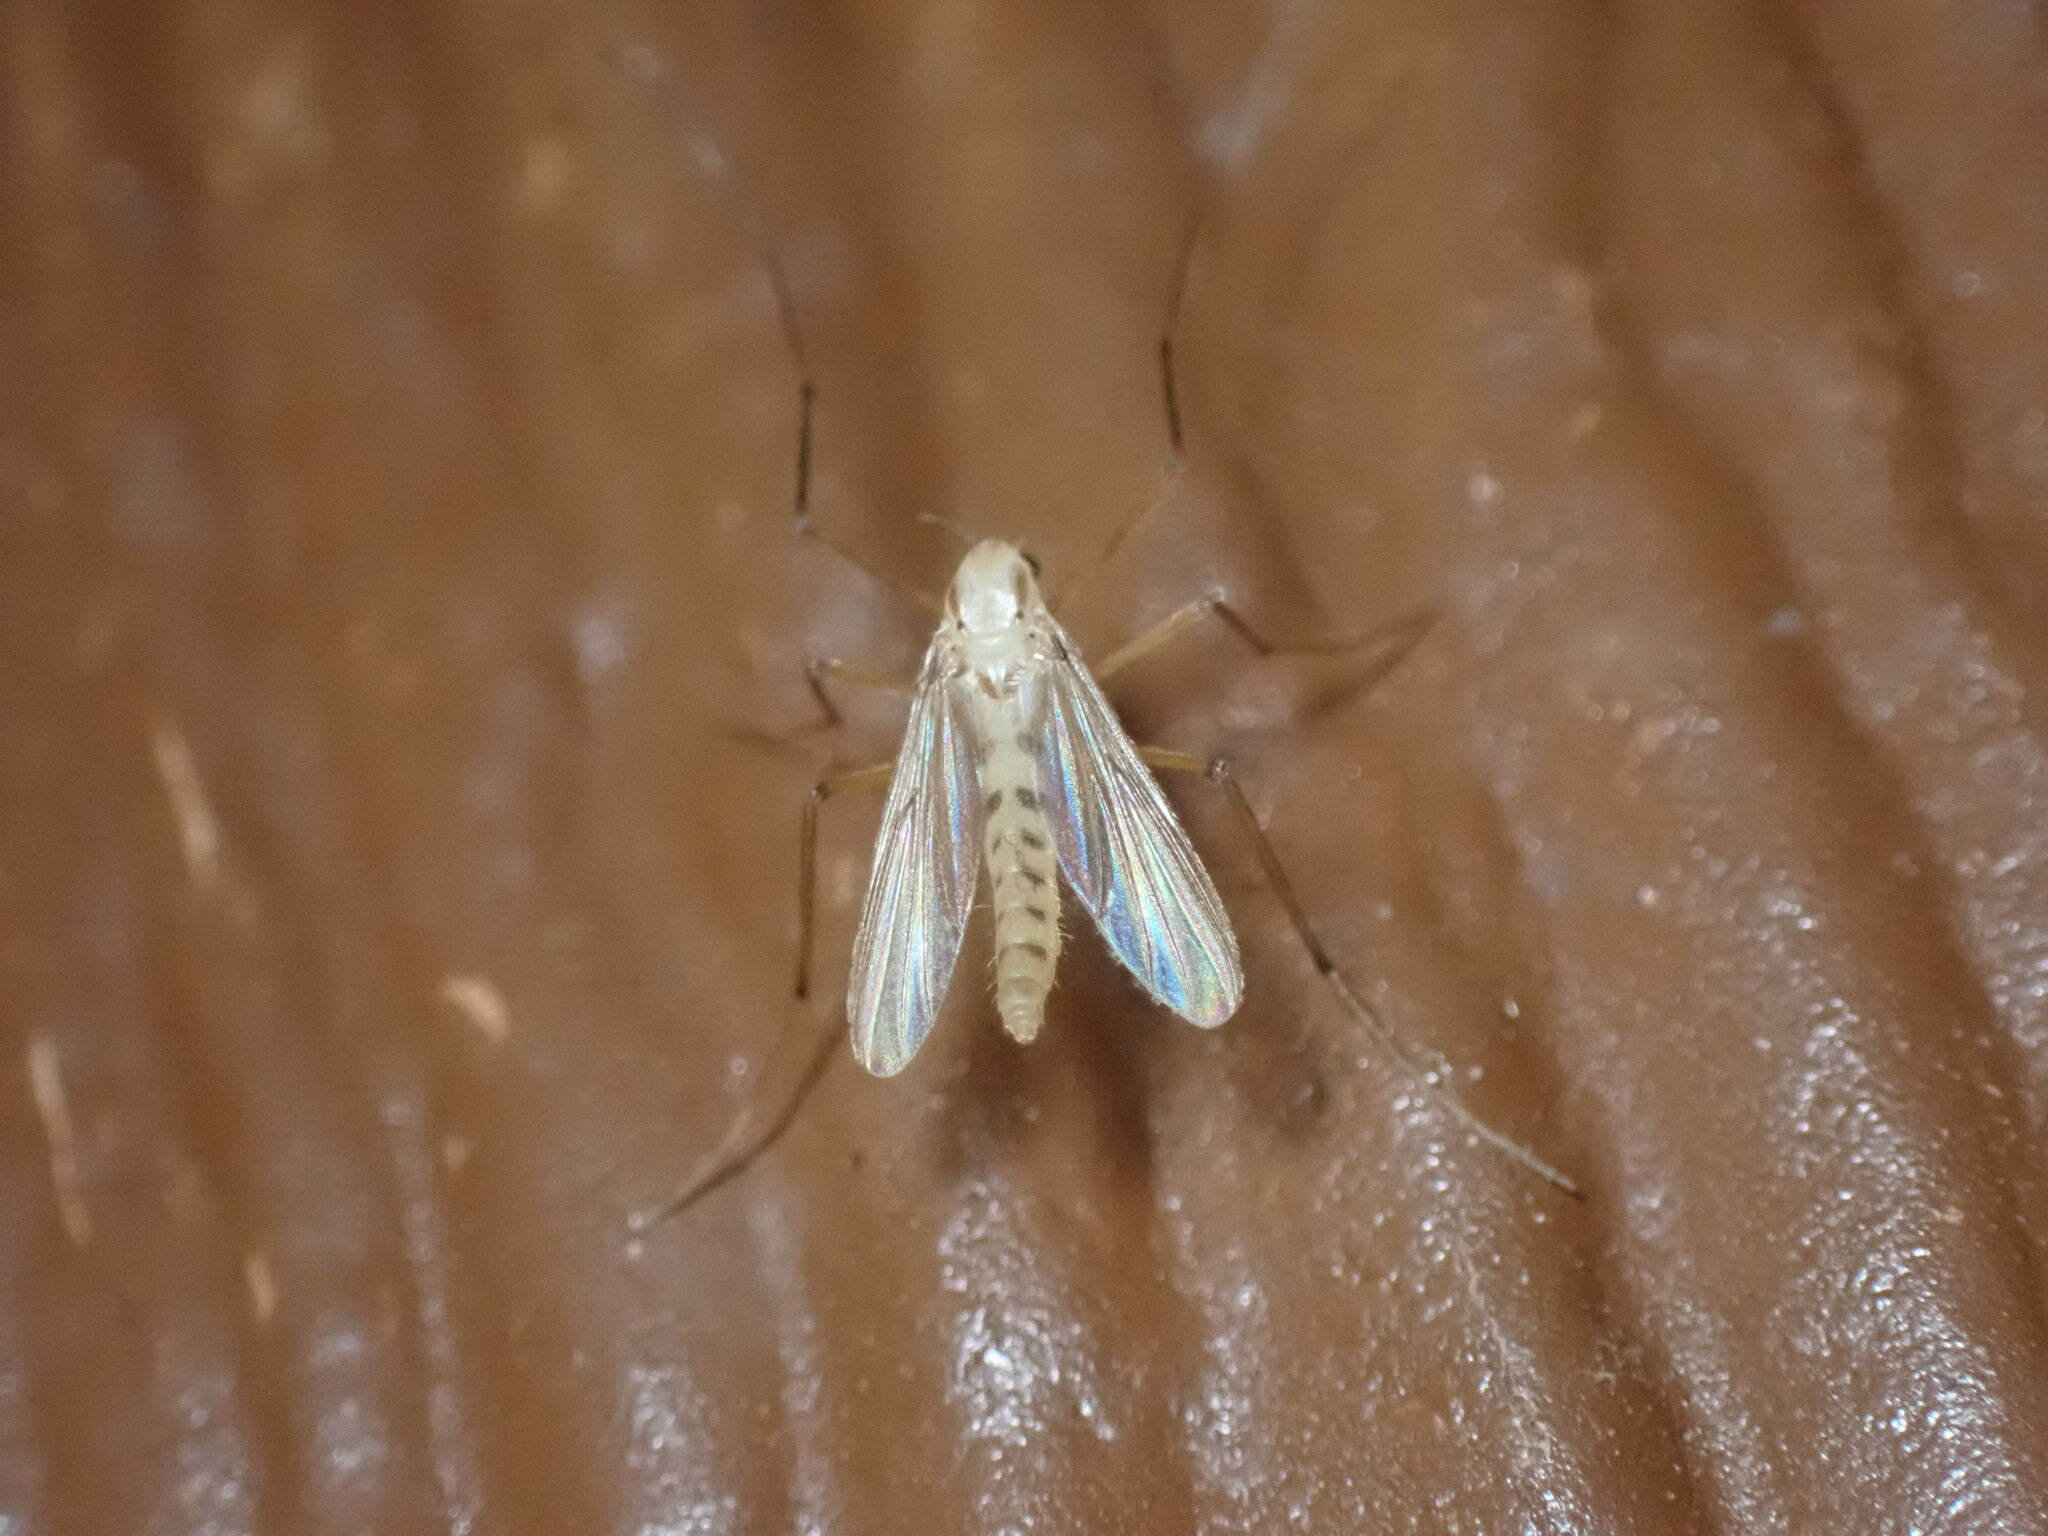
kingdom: Animalia
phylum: Arthropoda
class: Insecta
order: Diptera
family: Chironomidae
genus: Xylotopus
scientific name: Xylotopus par
